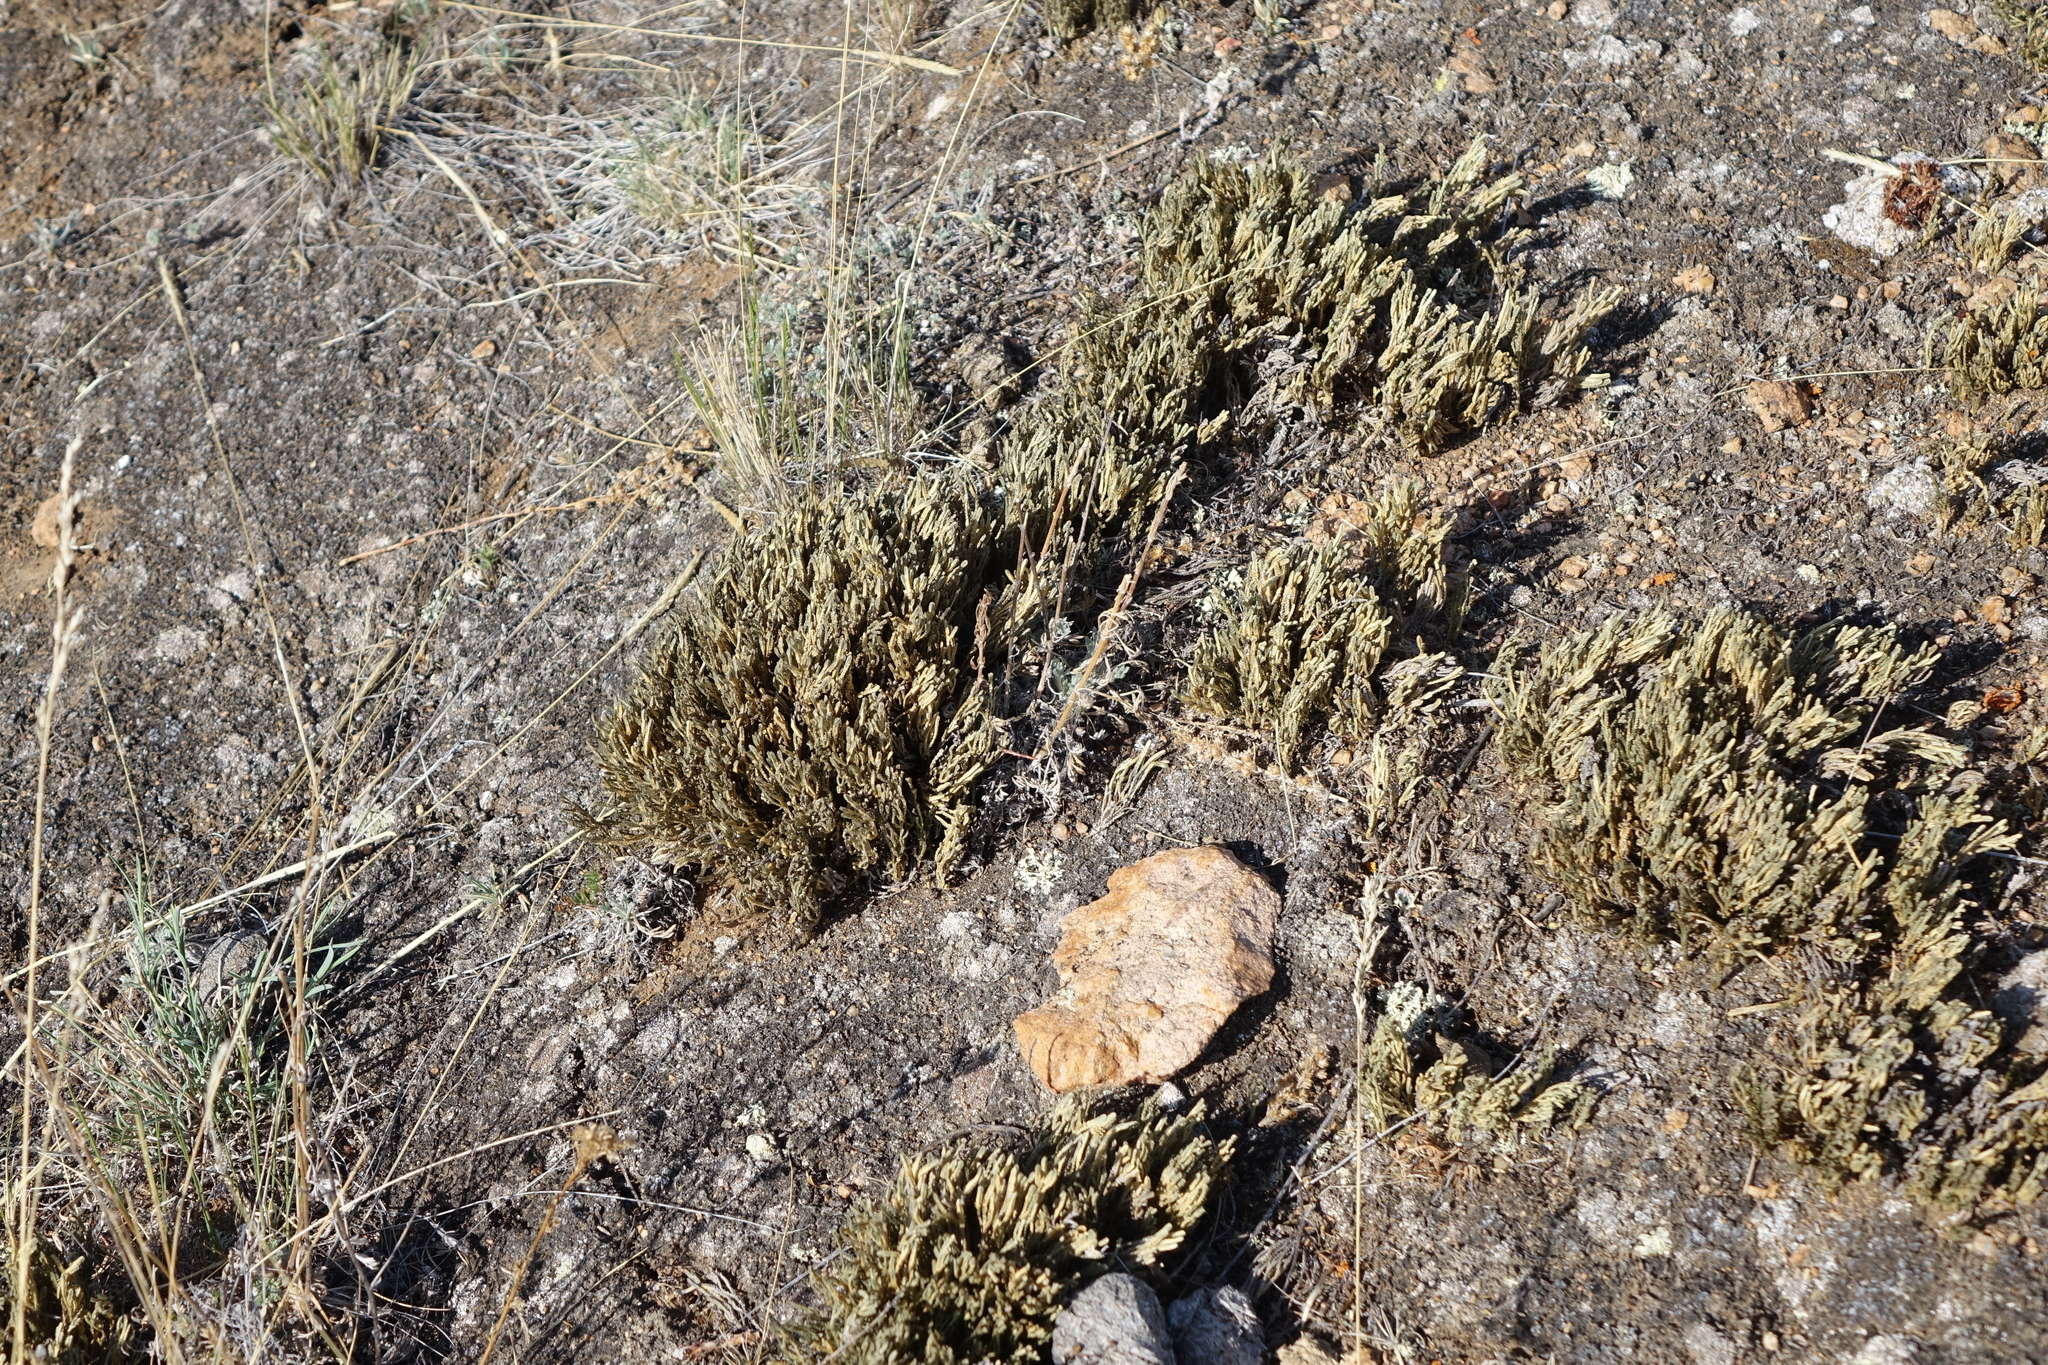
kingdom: Plantae
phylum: Tracheophyta
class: Lycopodiopsida
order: Selaginellales
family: Selaginellaceae
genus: Selaginella
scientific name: Selaginella sanguinolenta
